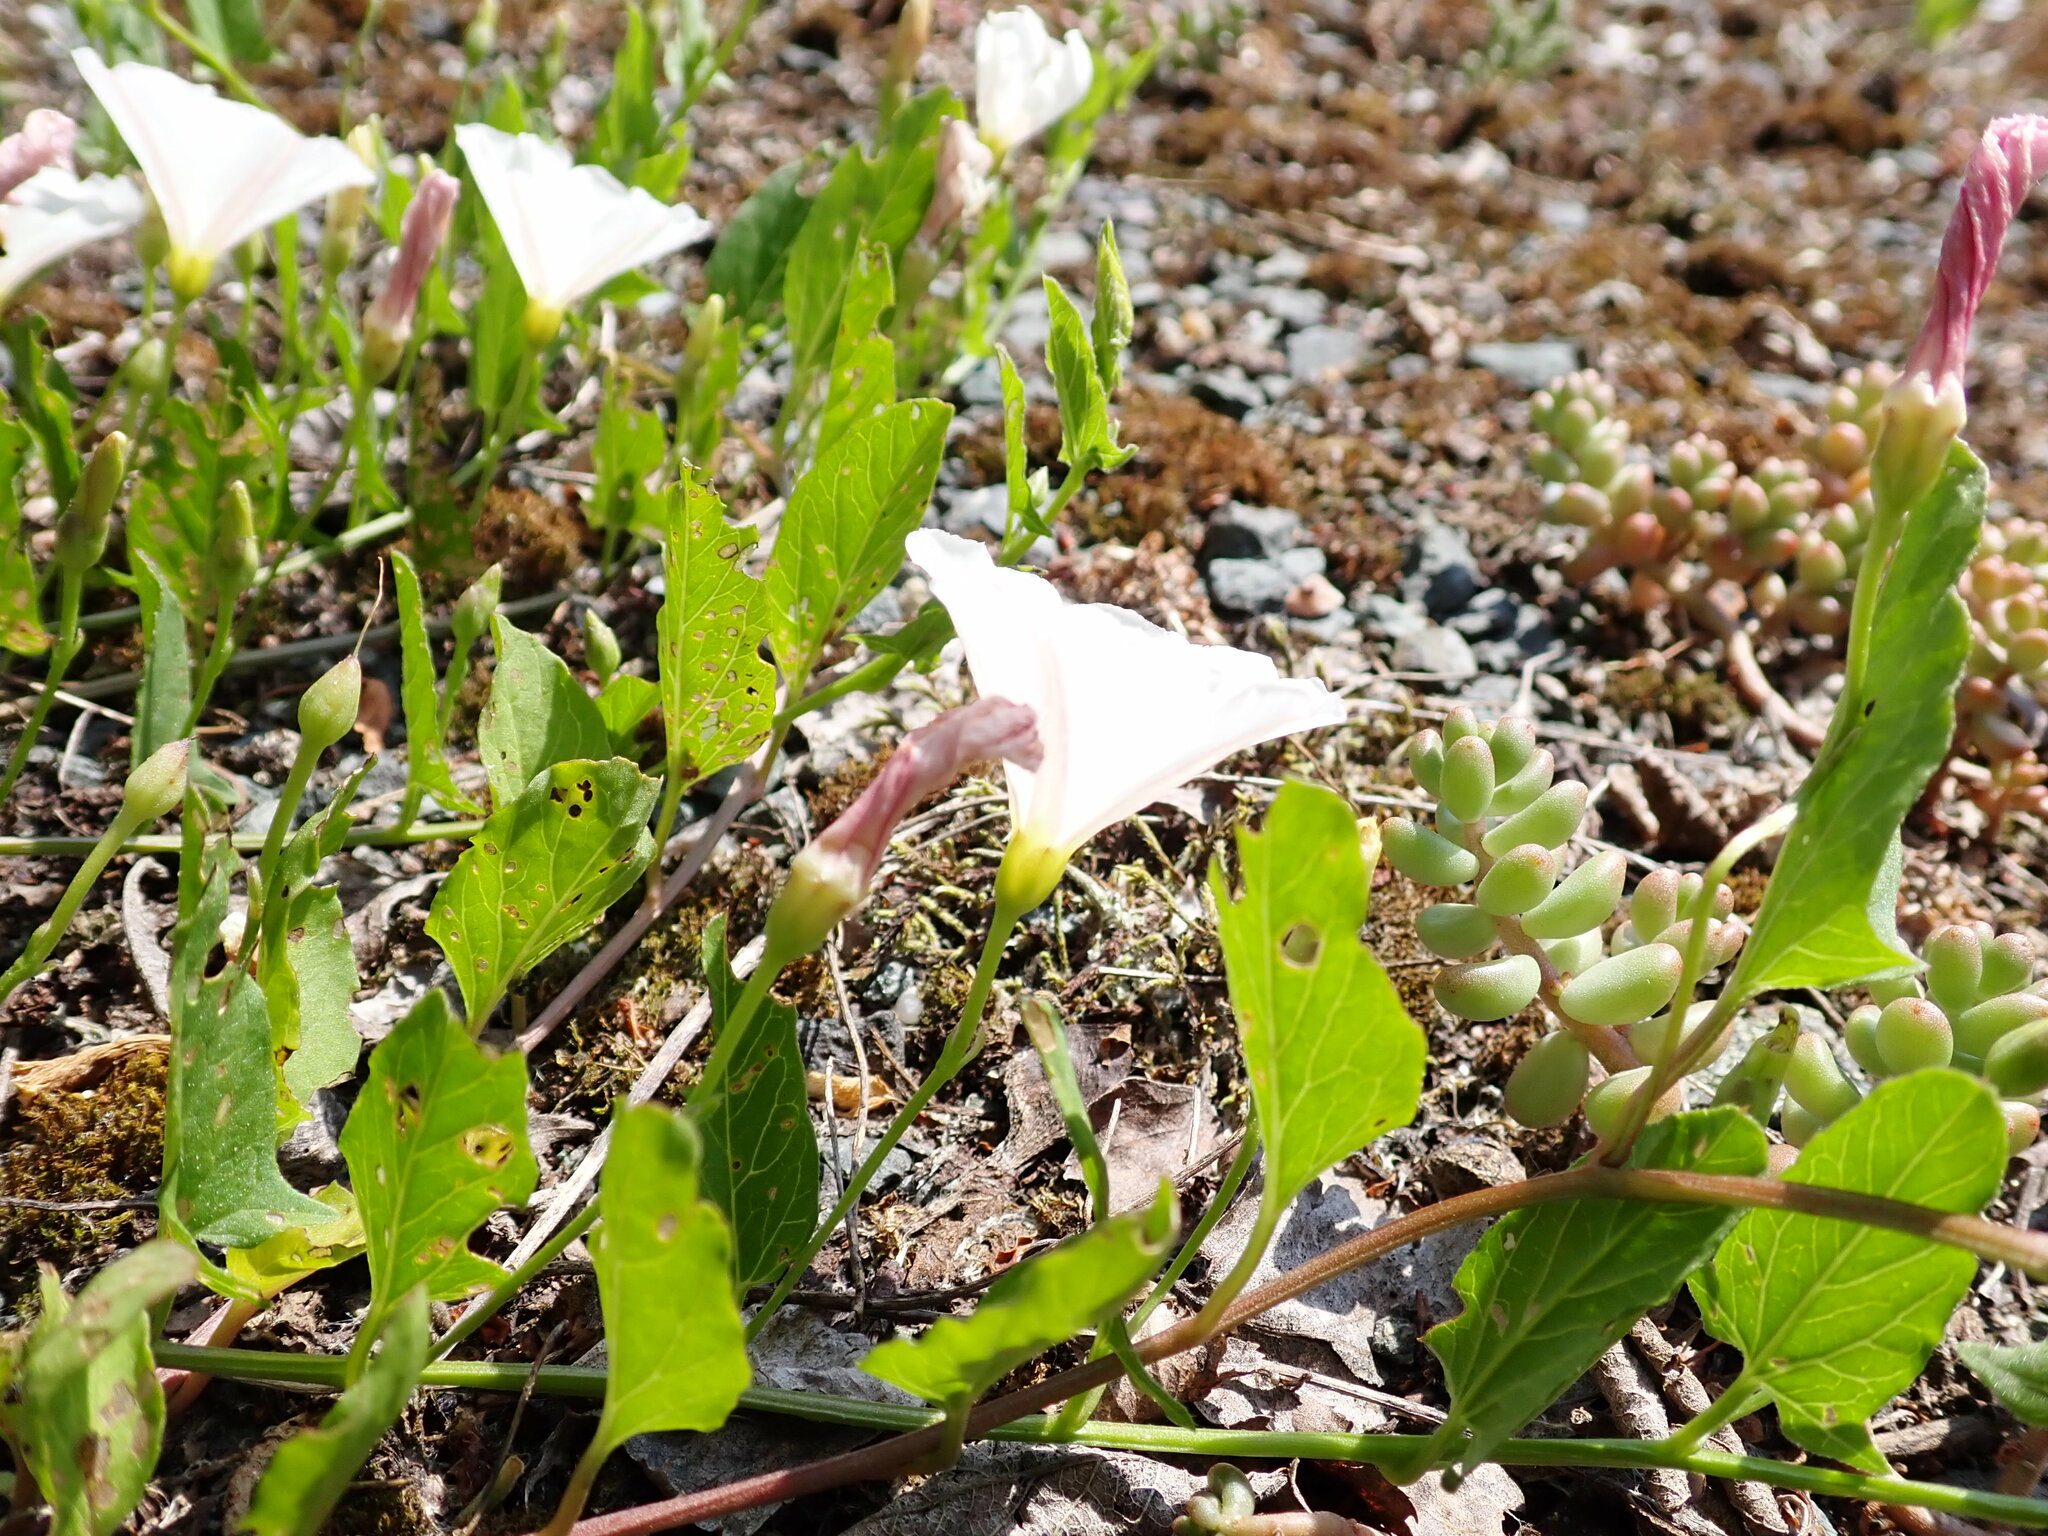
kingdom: Plantae
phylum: Tracheophyta
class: Magnoliopsida
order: Solanales
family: Convolvulaceae
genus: Convolvulus
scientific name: Convolvulus arvensis
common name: Field bindweed
